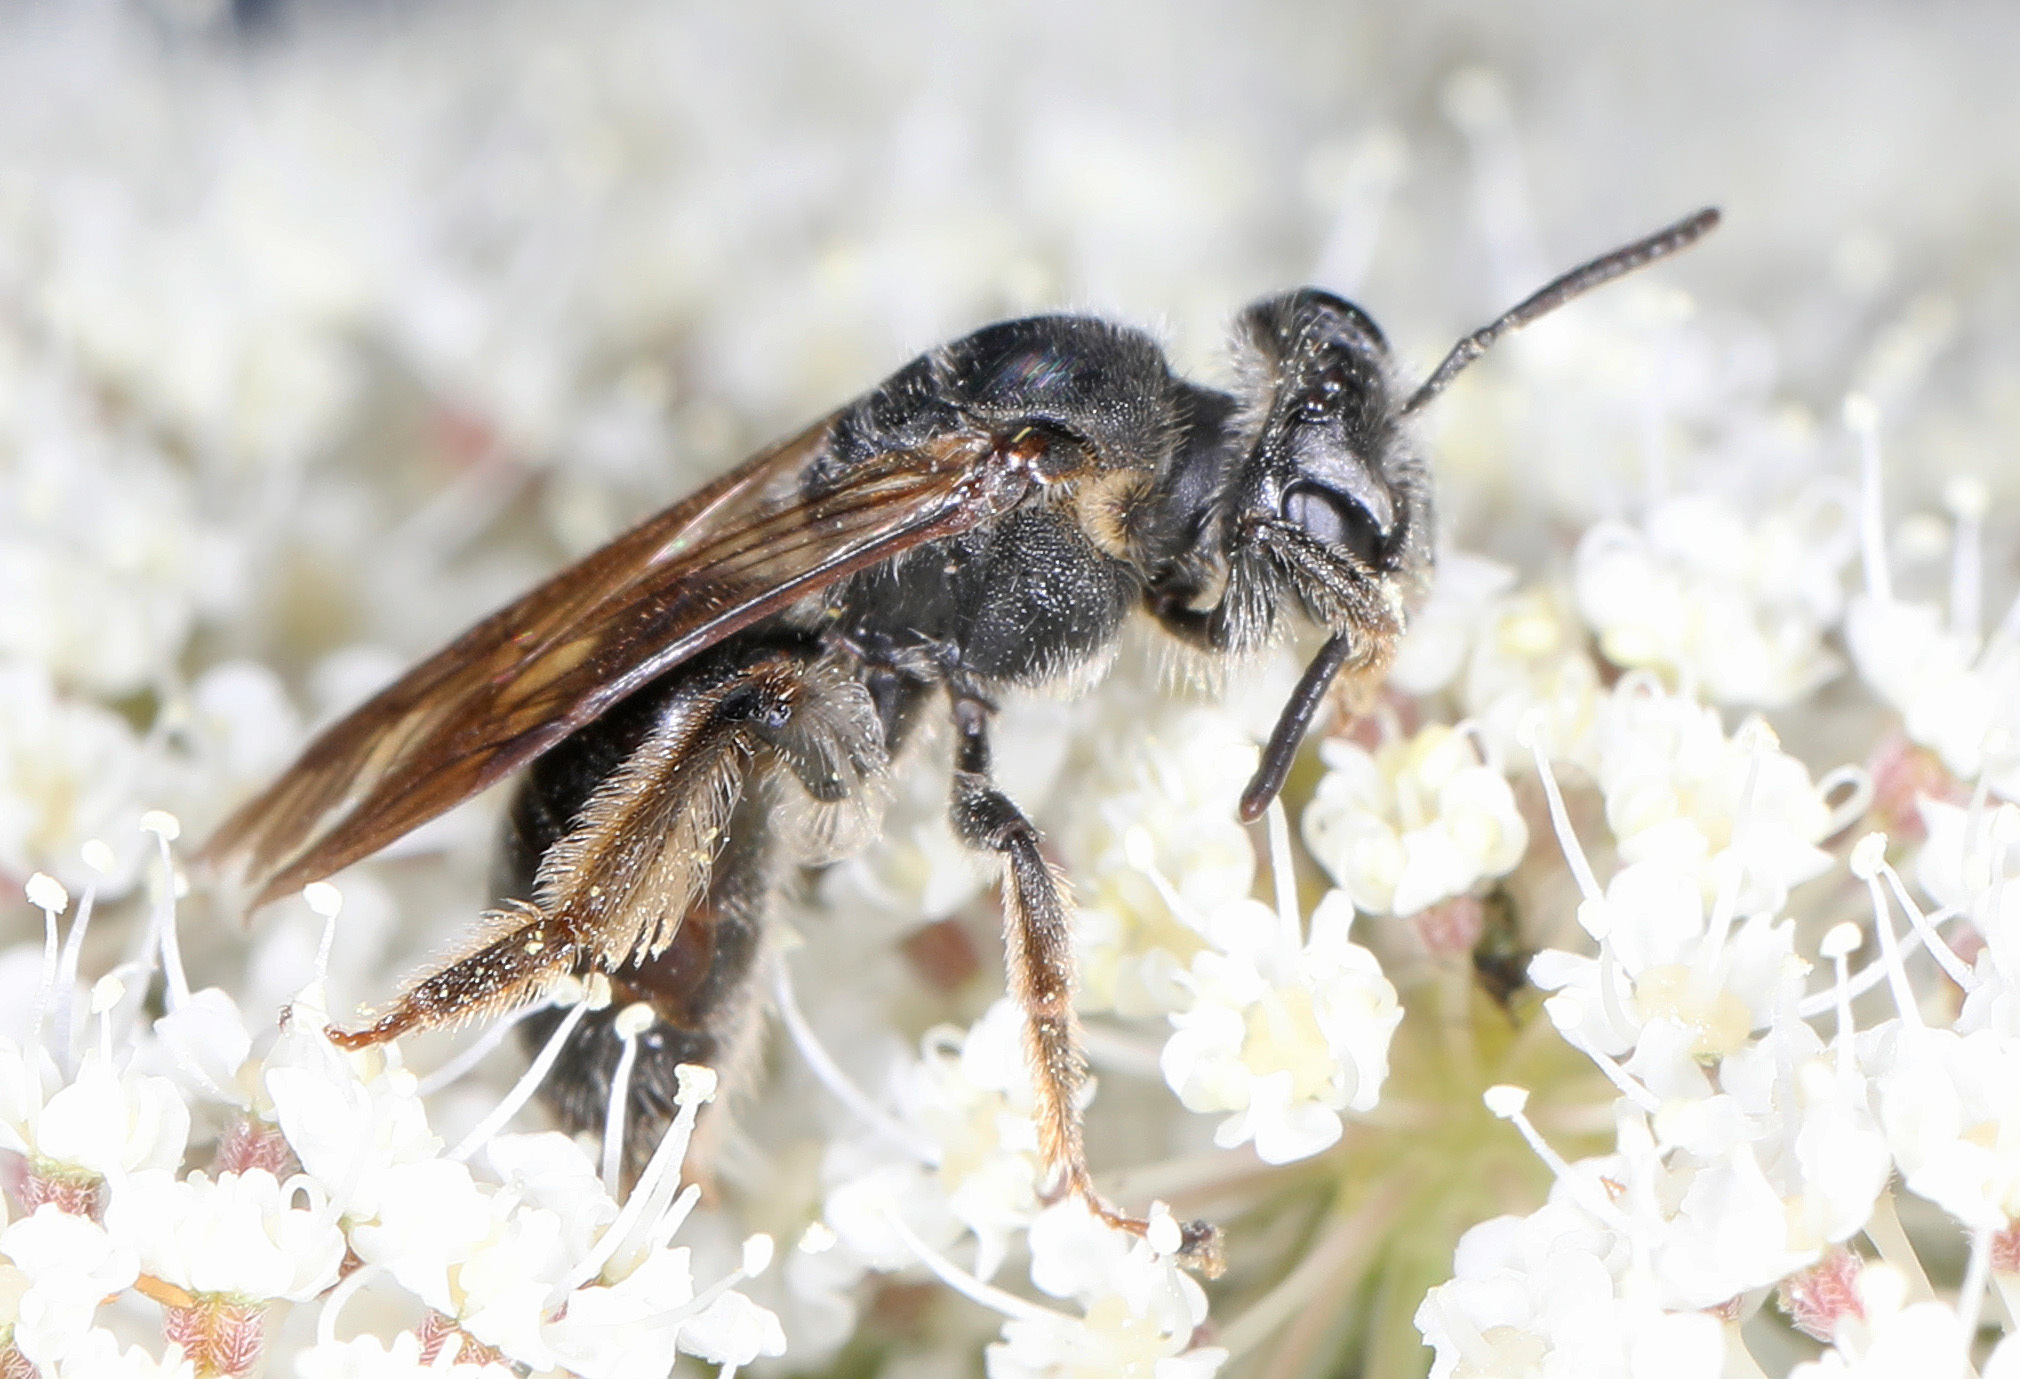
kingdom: Animalia
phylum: Arthropoda
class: Insecta
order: Hymenoptera
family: Andrenidae
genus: Andrena
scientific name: Andrena
